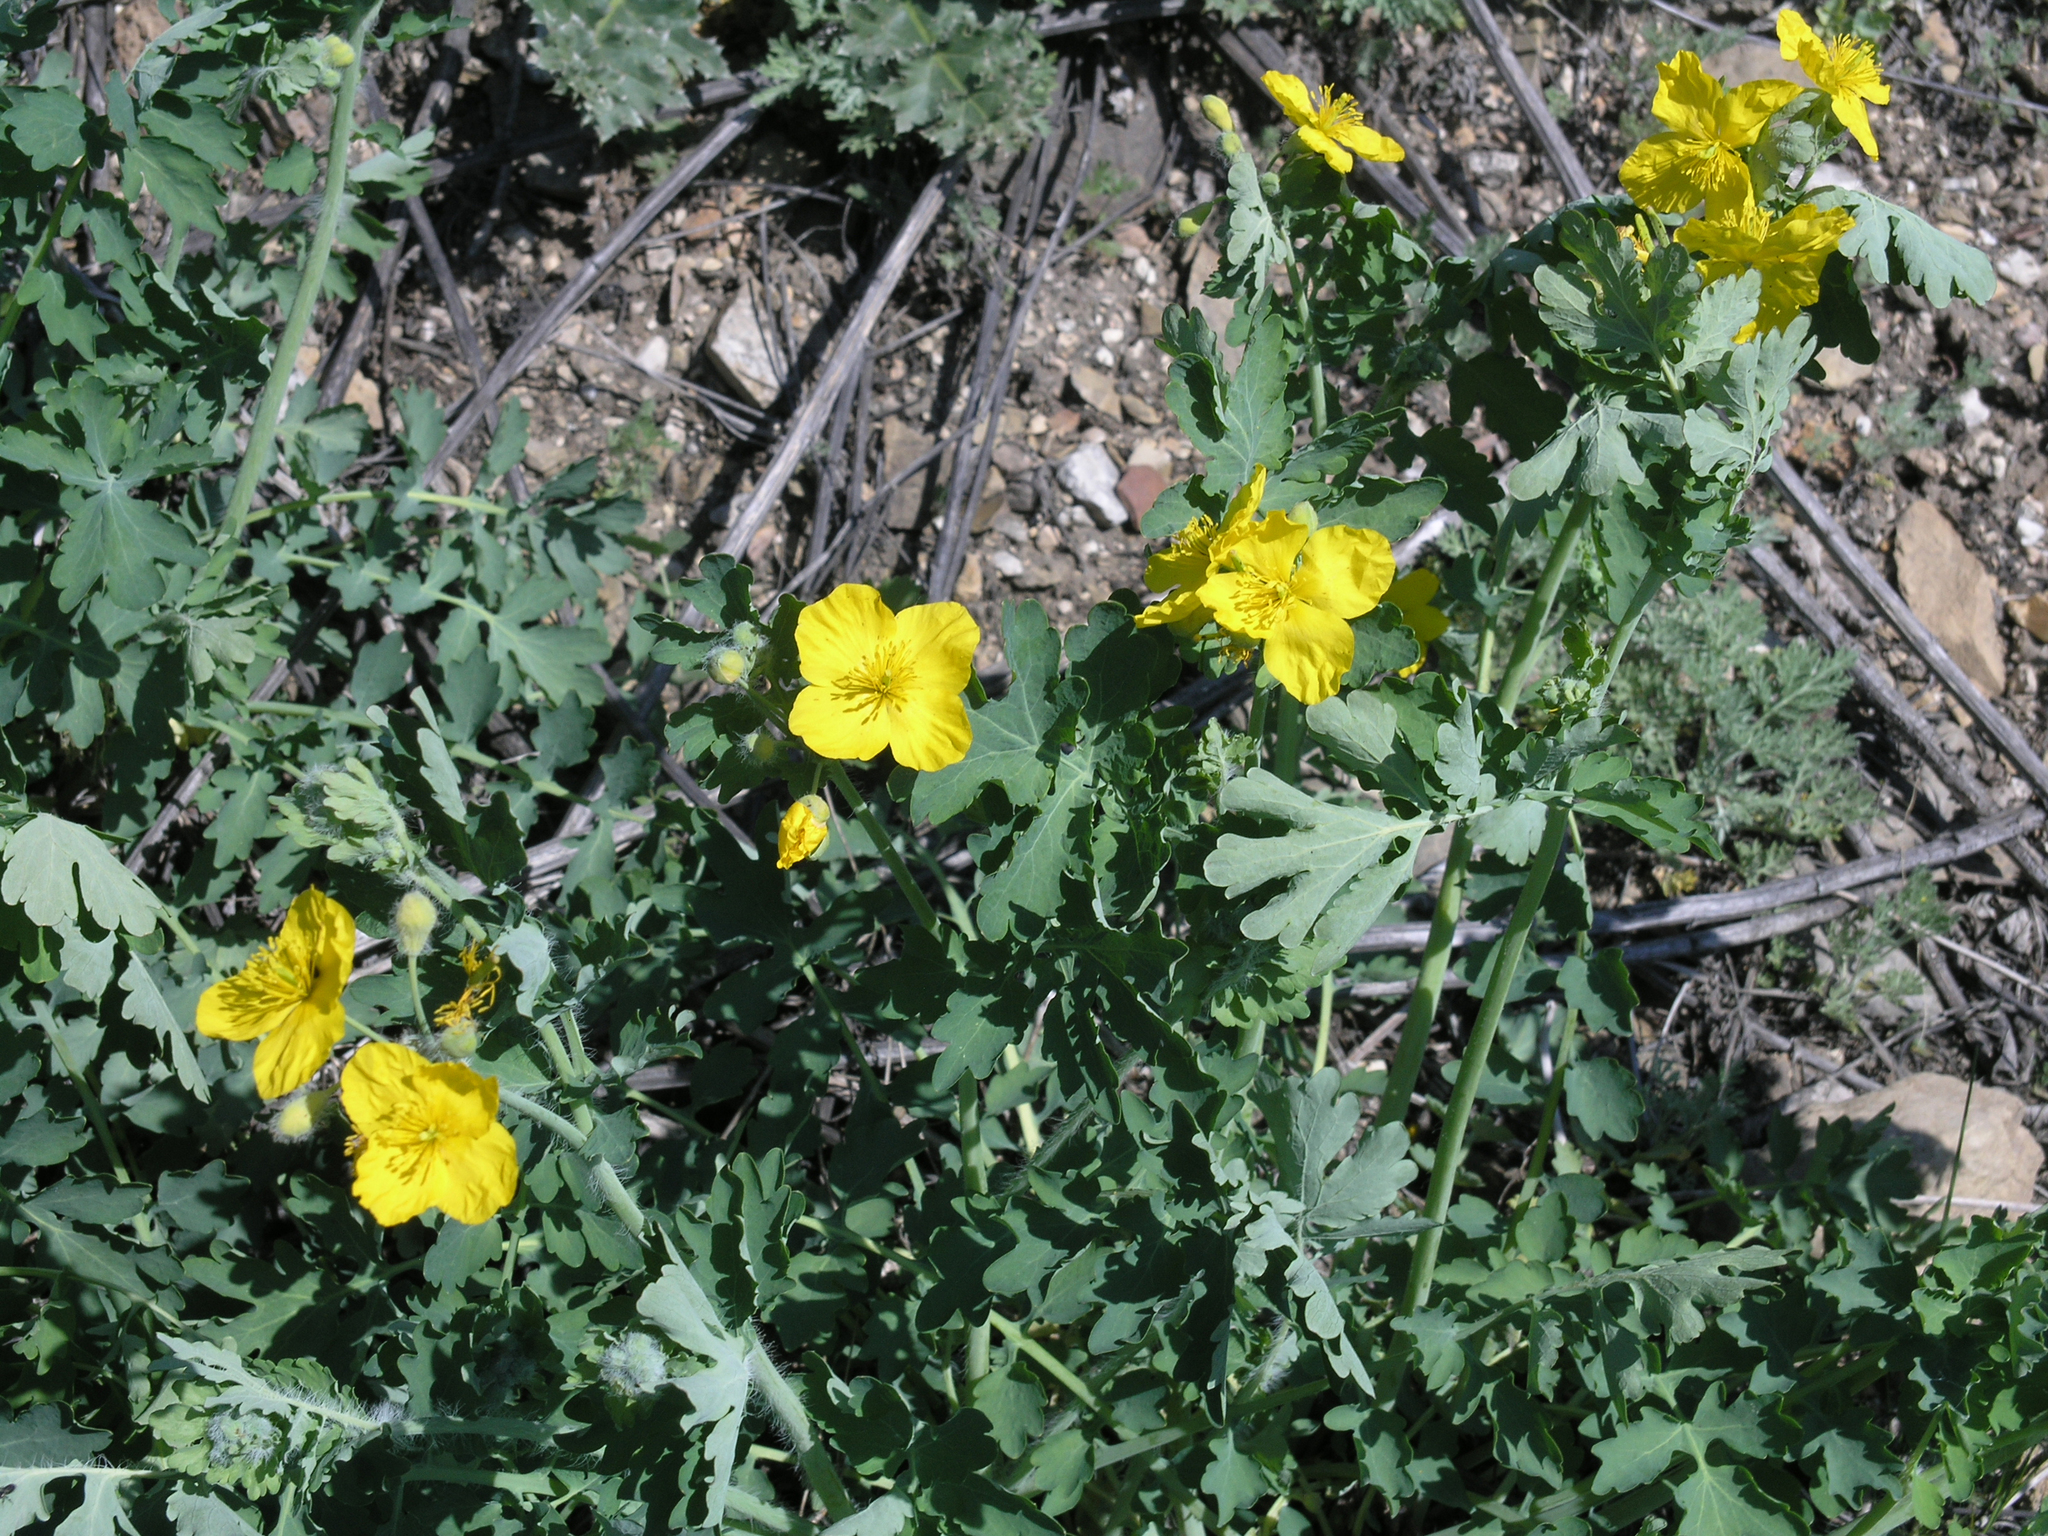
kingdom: Plantae
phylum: Tracheophyta
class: Magnoliopsida
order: Ranunculales
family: Papaveraceae
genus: Chelidonium
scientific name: Chelidonium majus
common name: Greater celandine
